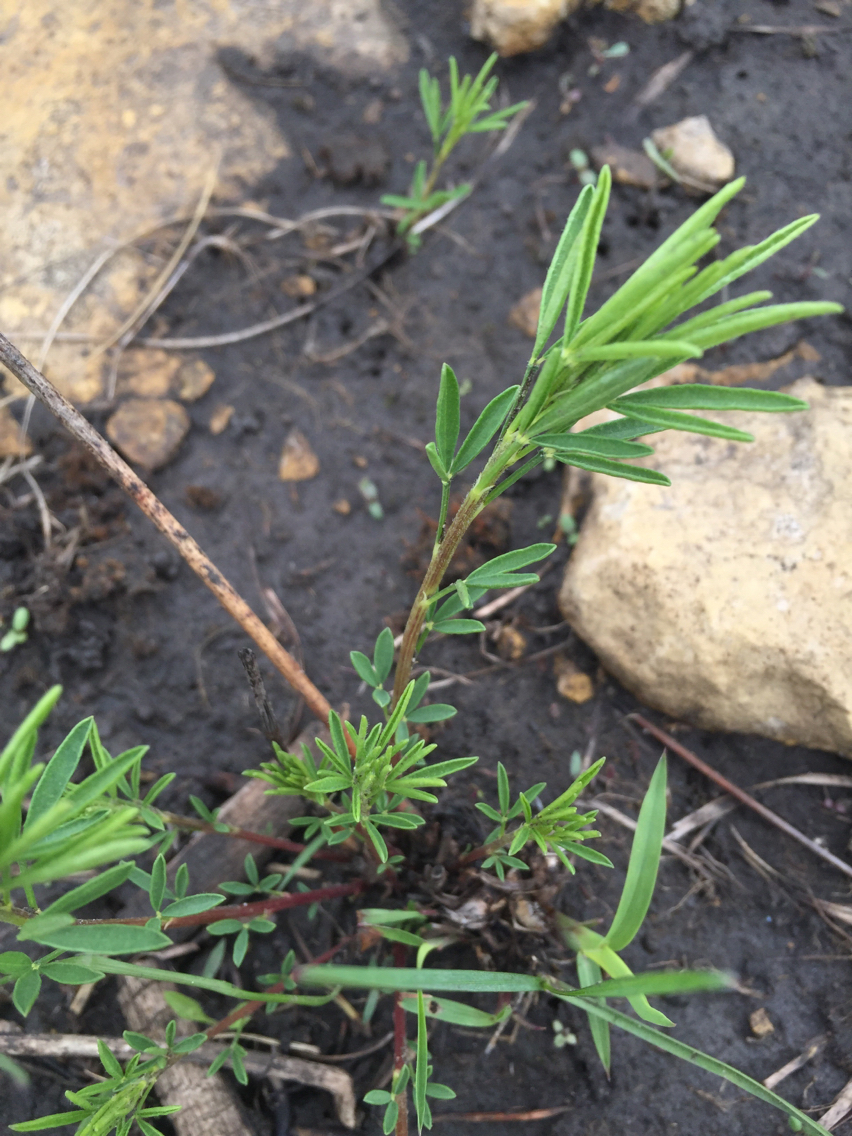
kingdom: Plantae
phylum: Tracheophyta
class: Magnoliopsida
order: Fabales
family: Fabaceae
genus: Dalea
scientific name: Dalea purpurea
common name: Purple prairie-clover
